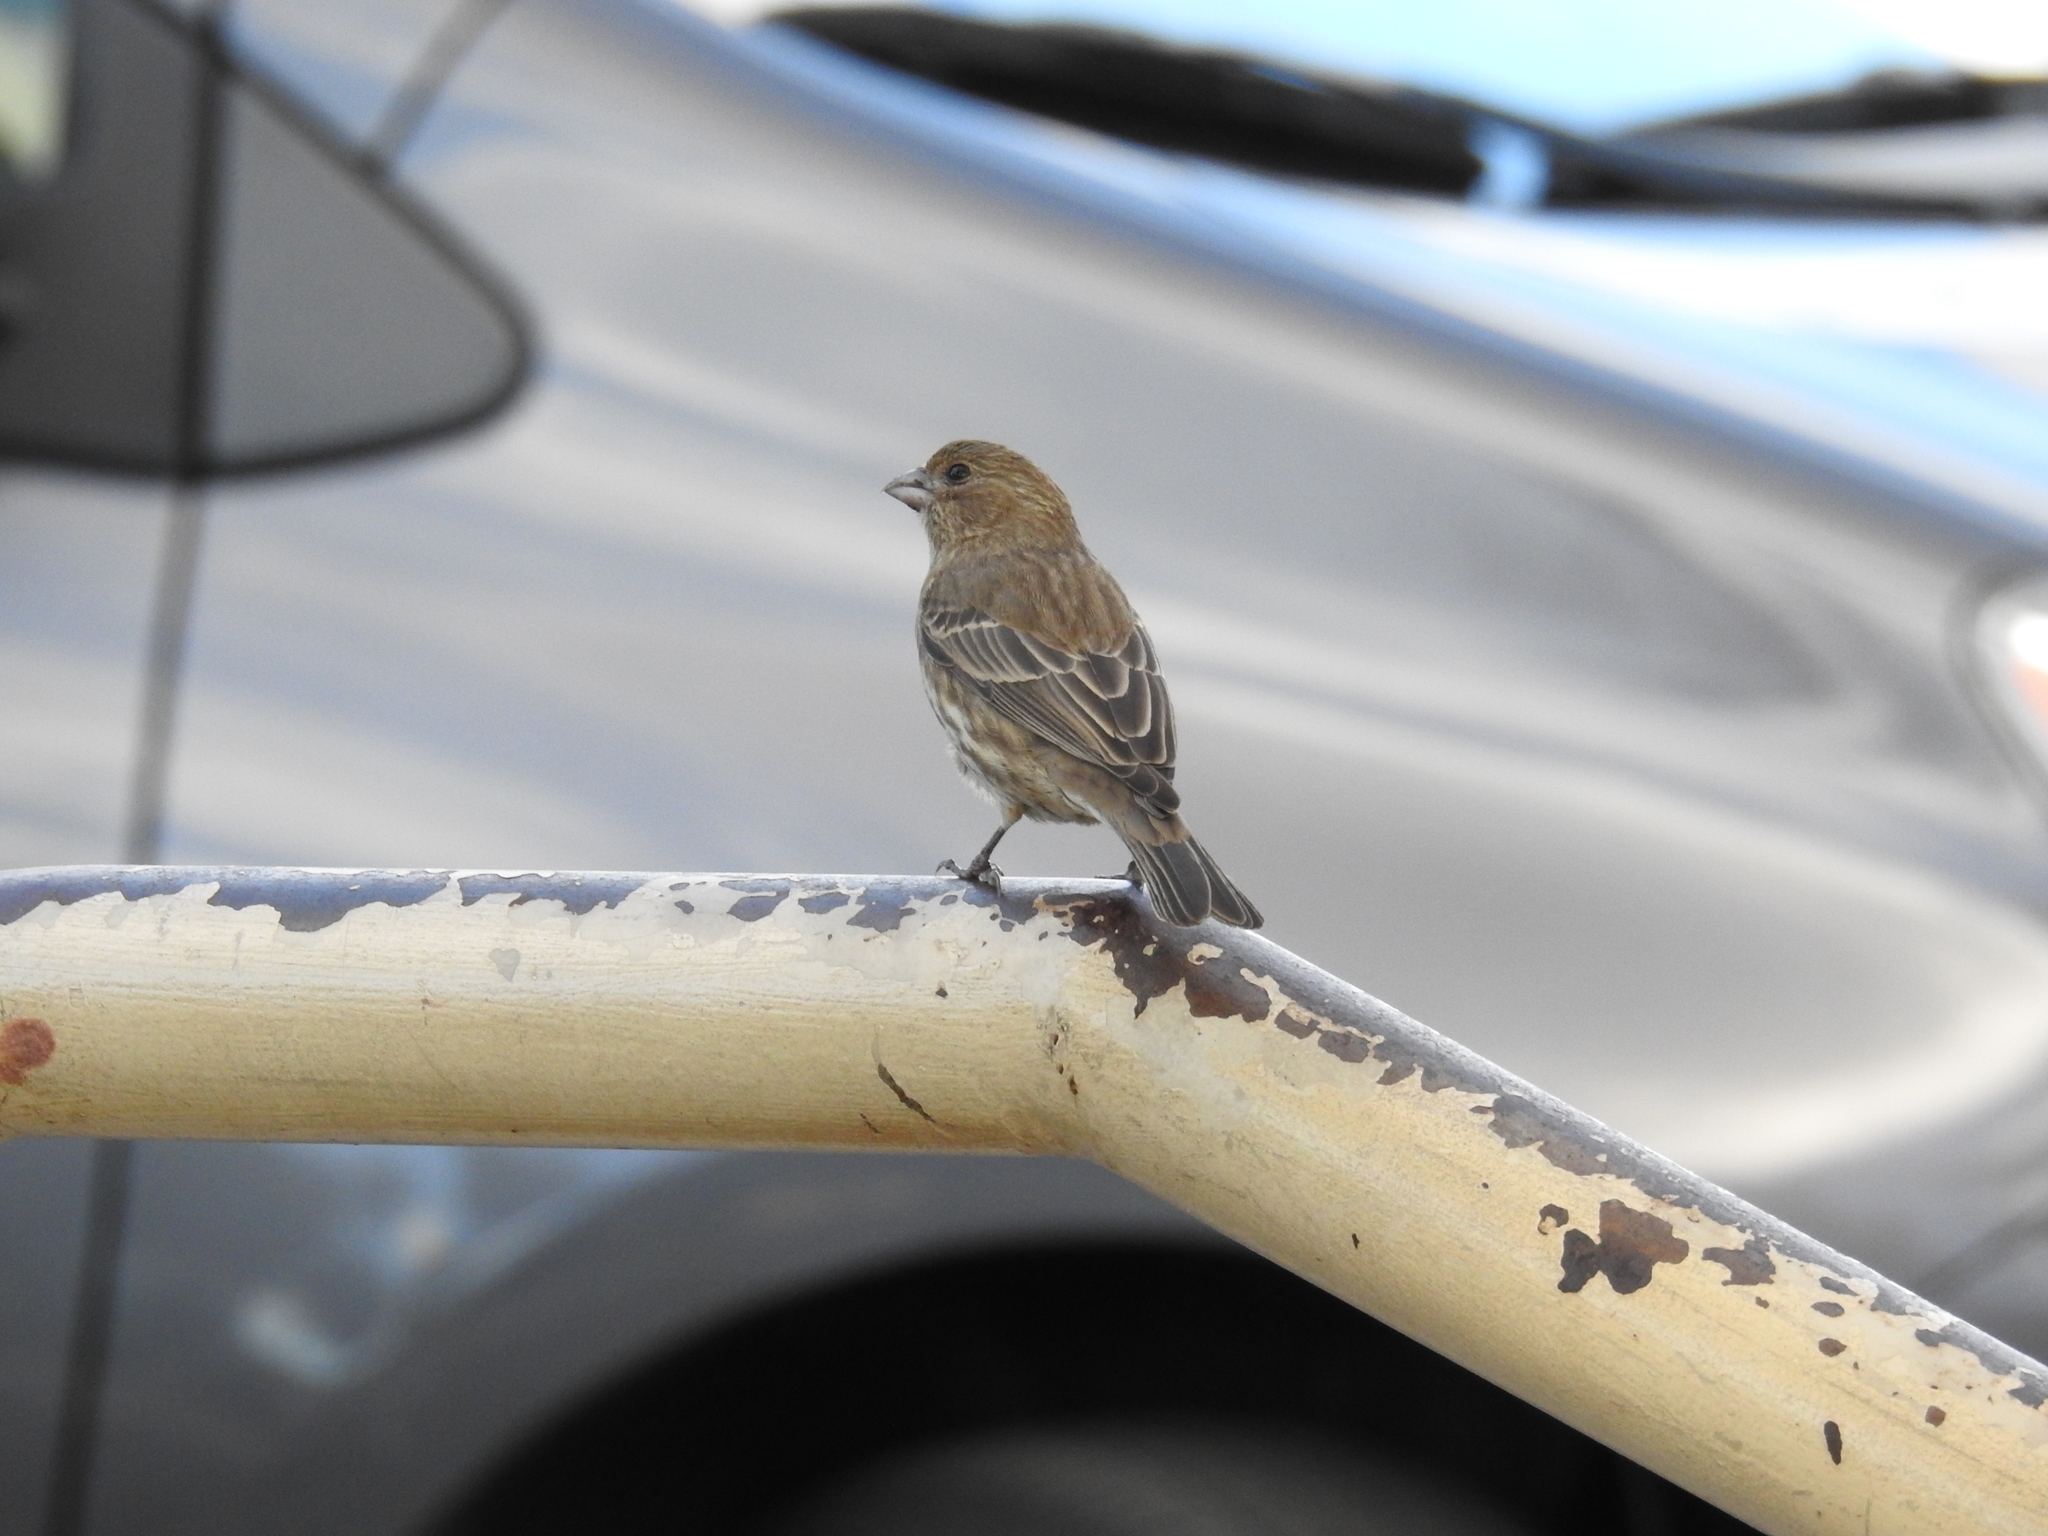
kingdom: Animalia
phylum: Chordata
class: Aves
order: Passeriformes
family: Fringillidae
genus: Haemorhous
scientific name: Haemorhous mexicanus
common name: House finch
